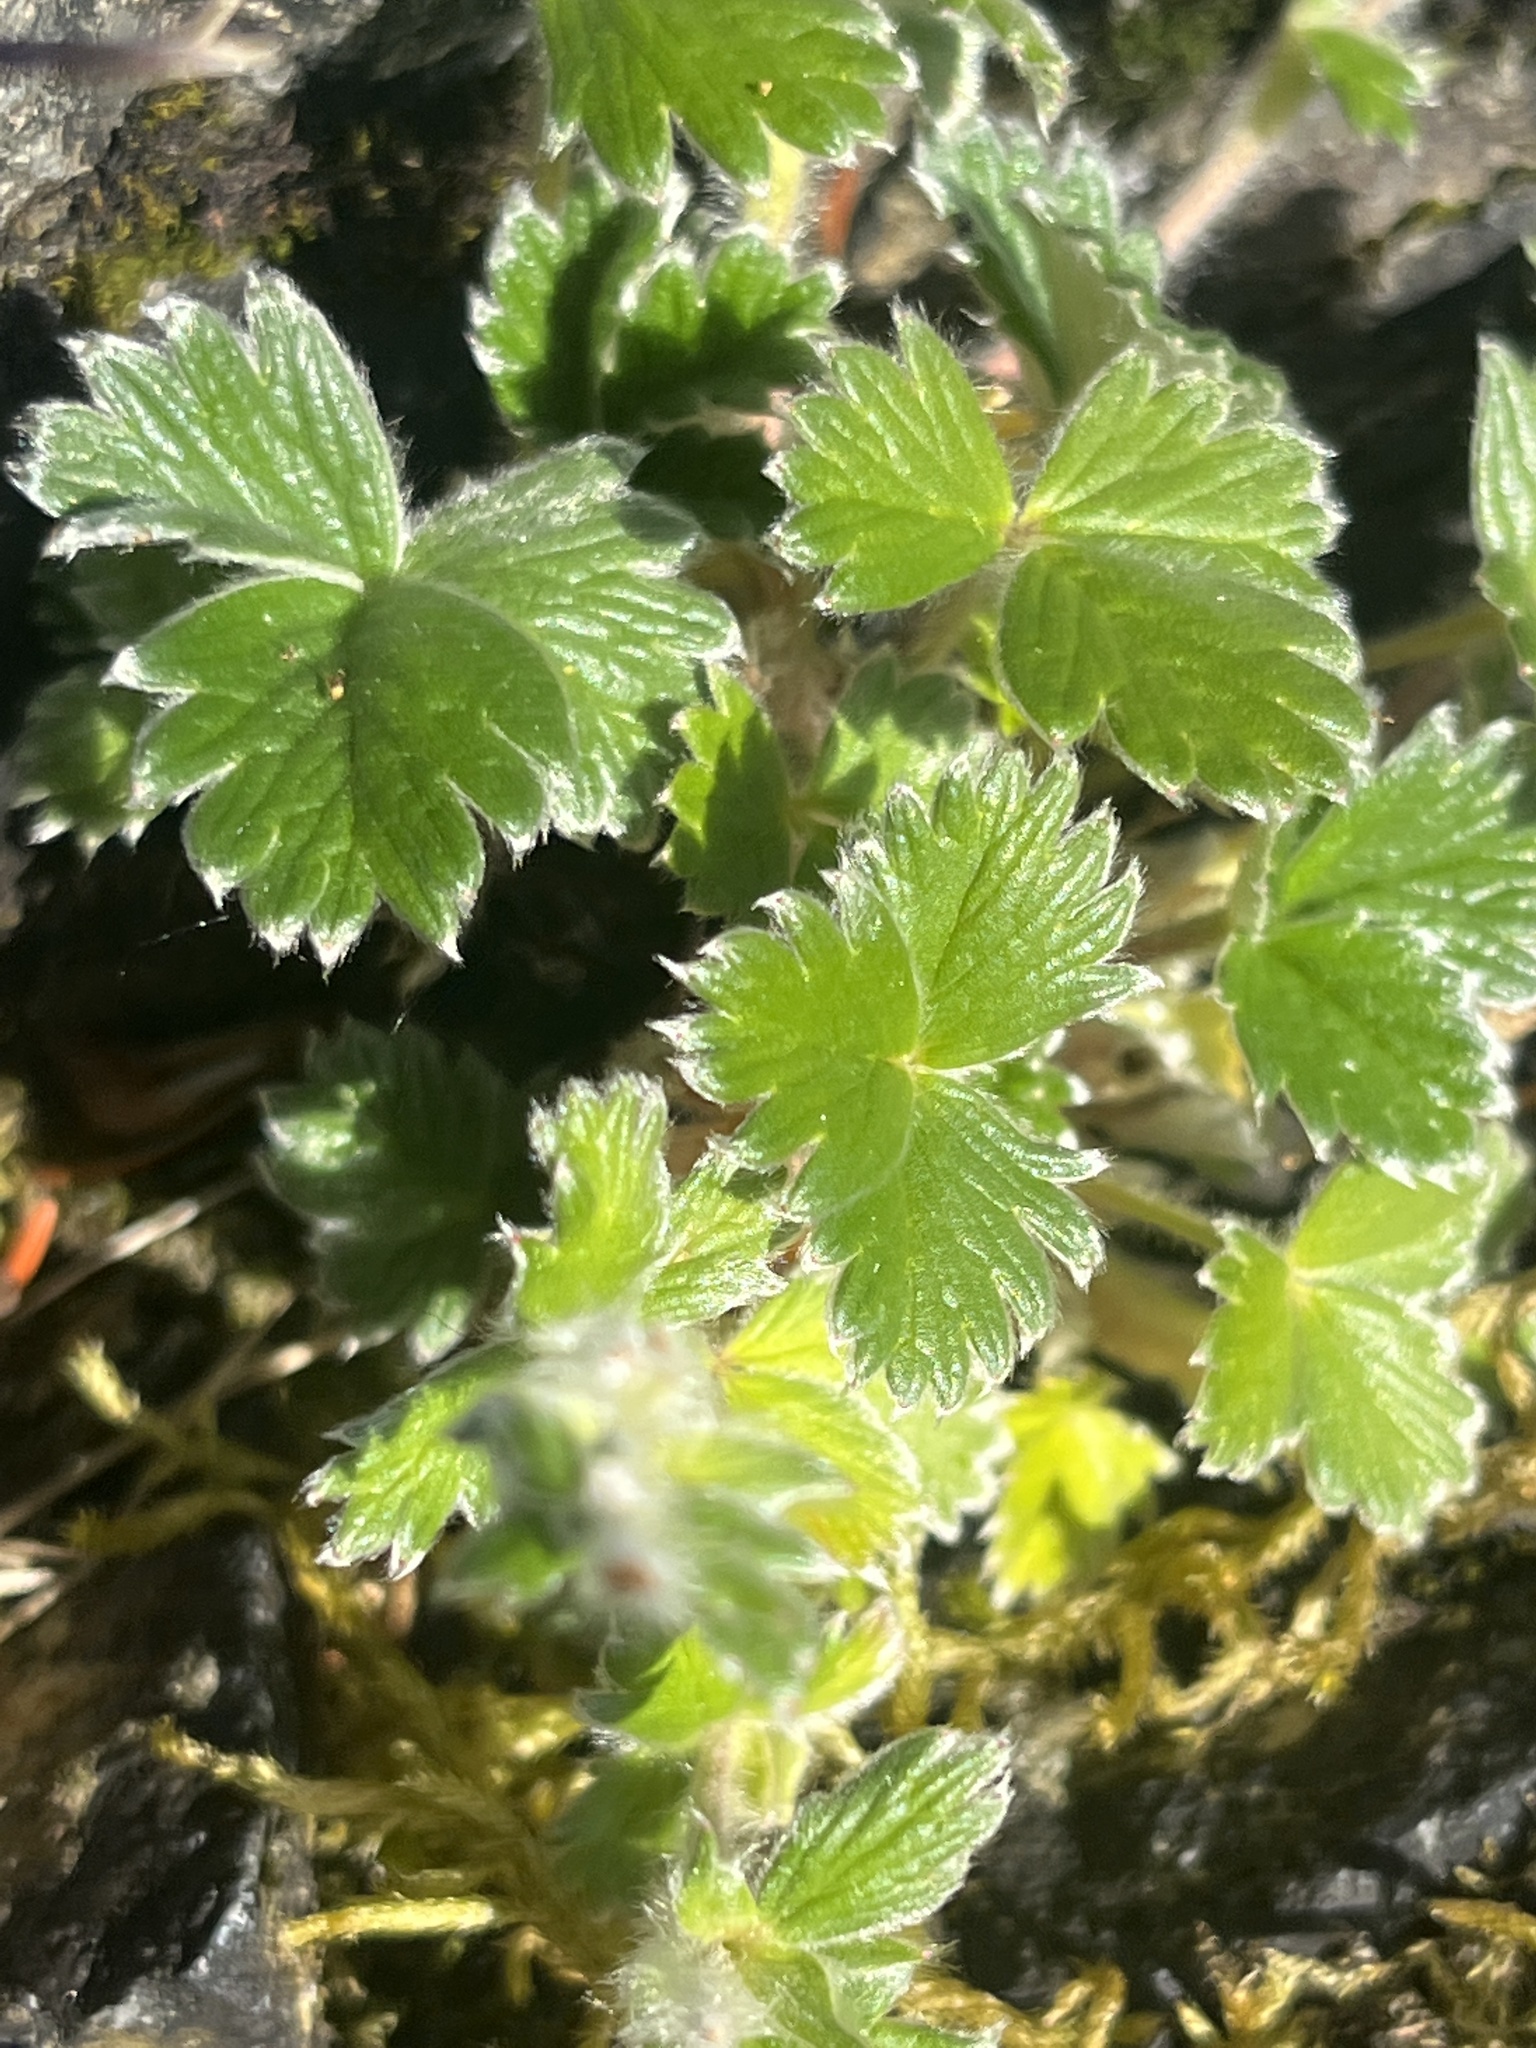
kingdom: Plantae
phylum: Tracheophyta
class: Magnoliopsida
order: Rosales
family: Rosaceae
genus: Potentilla
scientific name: Potentilla villosa
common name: Northern cinquefoil
